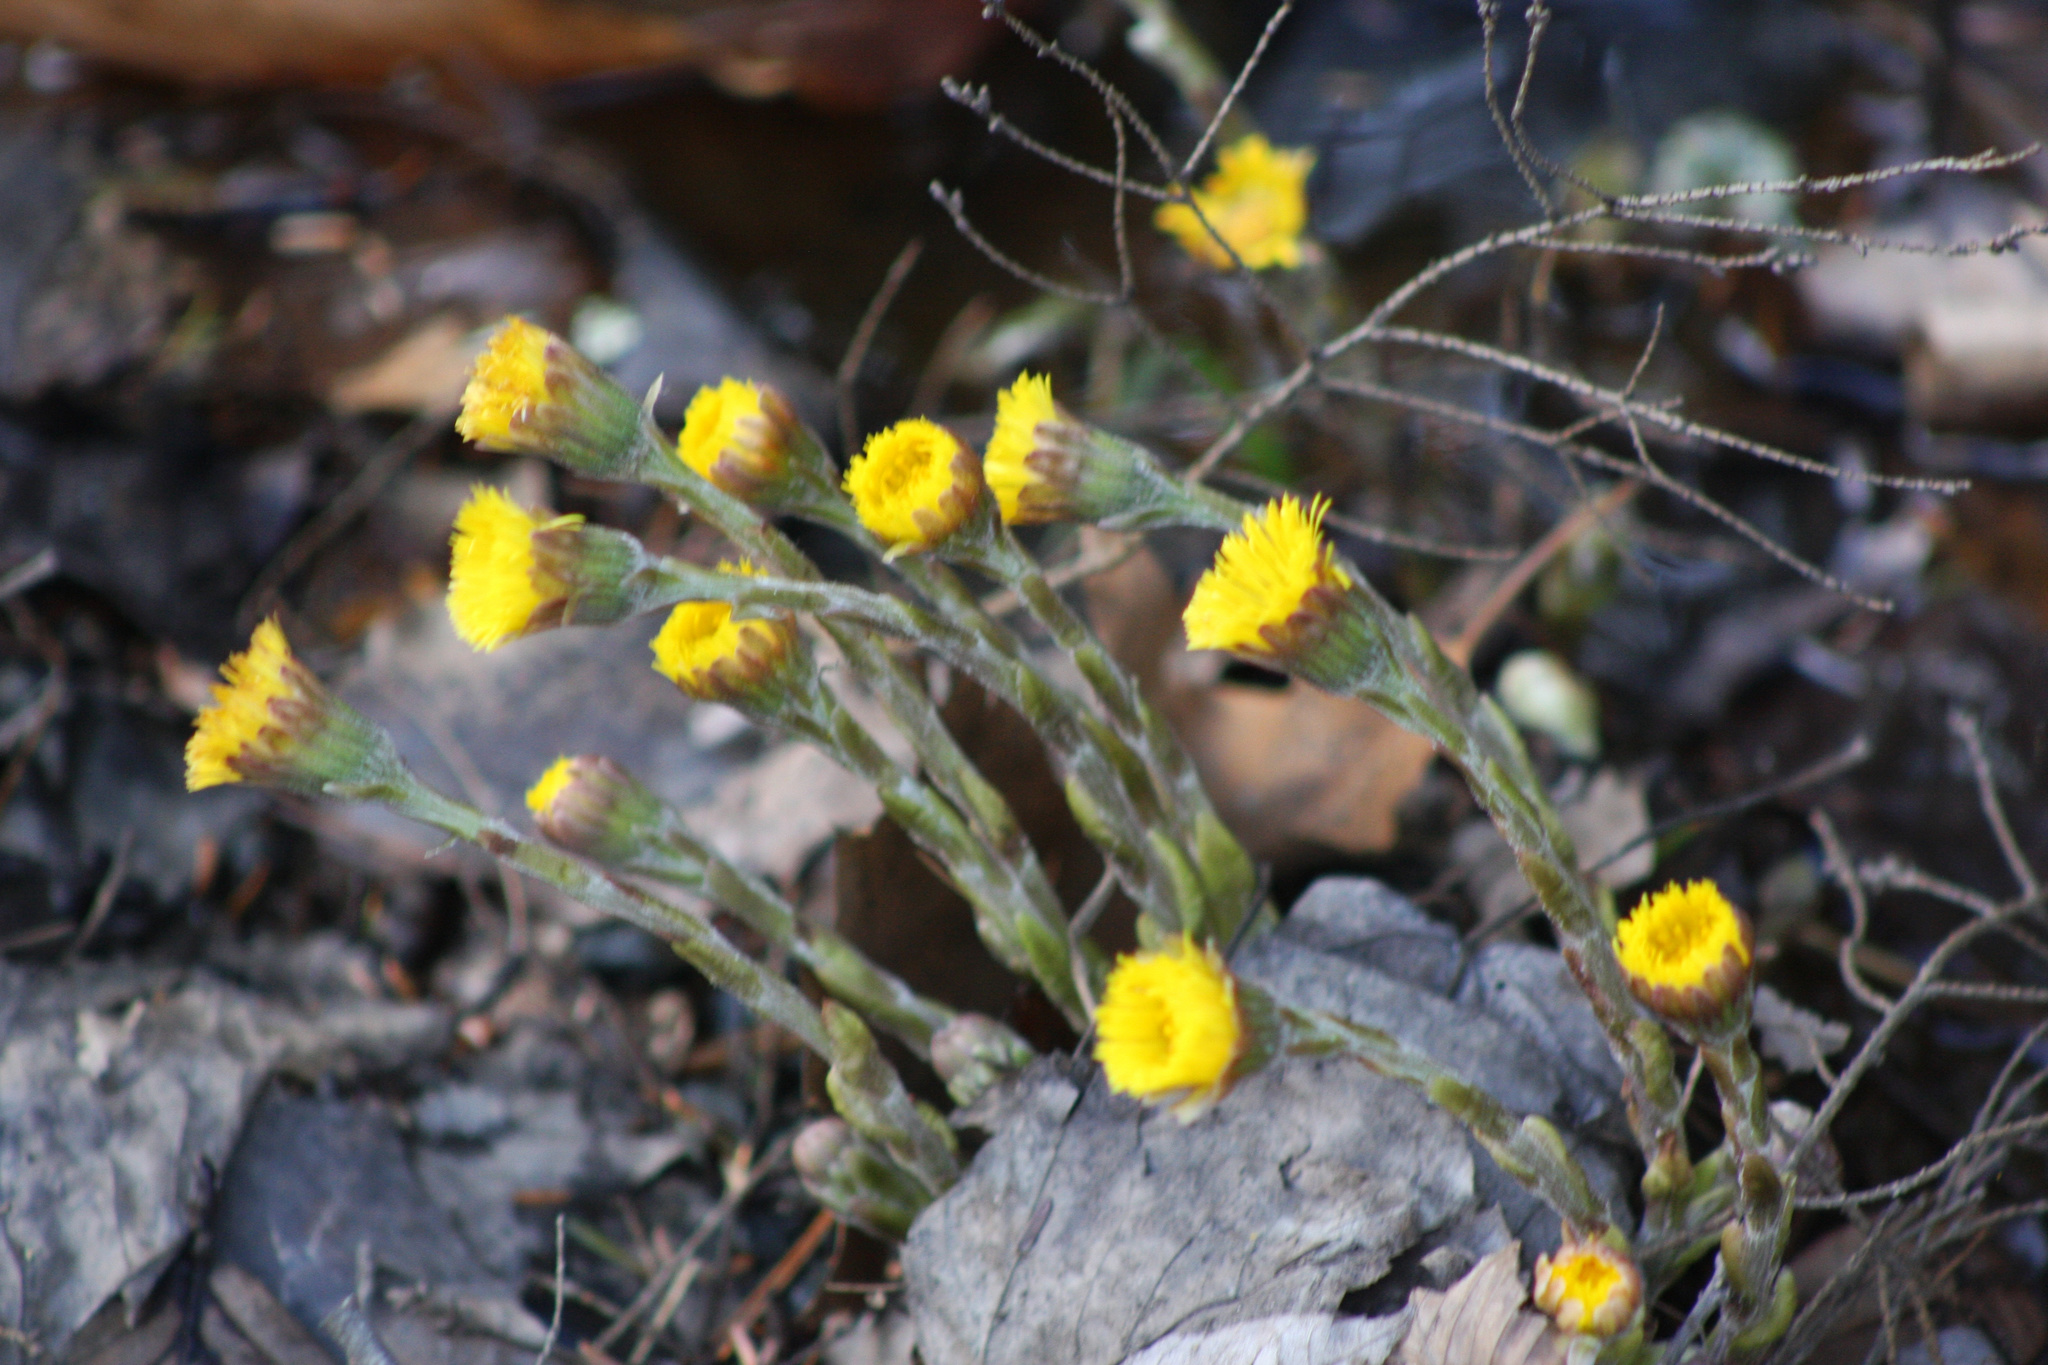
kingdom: Plantae
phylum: Tracheophyta
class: Magnoliopsida
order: Asterales
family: Asteraceae
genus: Tussilago
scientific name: Tussilago farfara
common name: Coltsfoot
